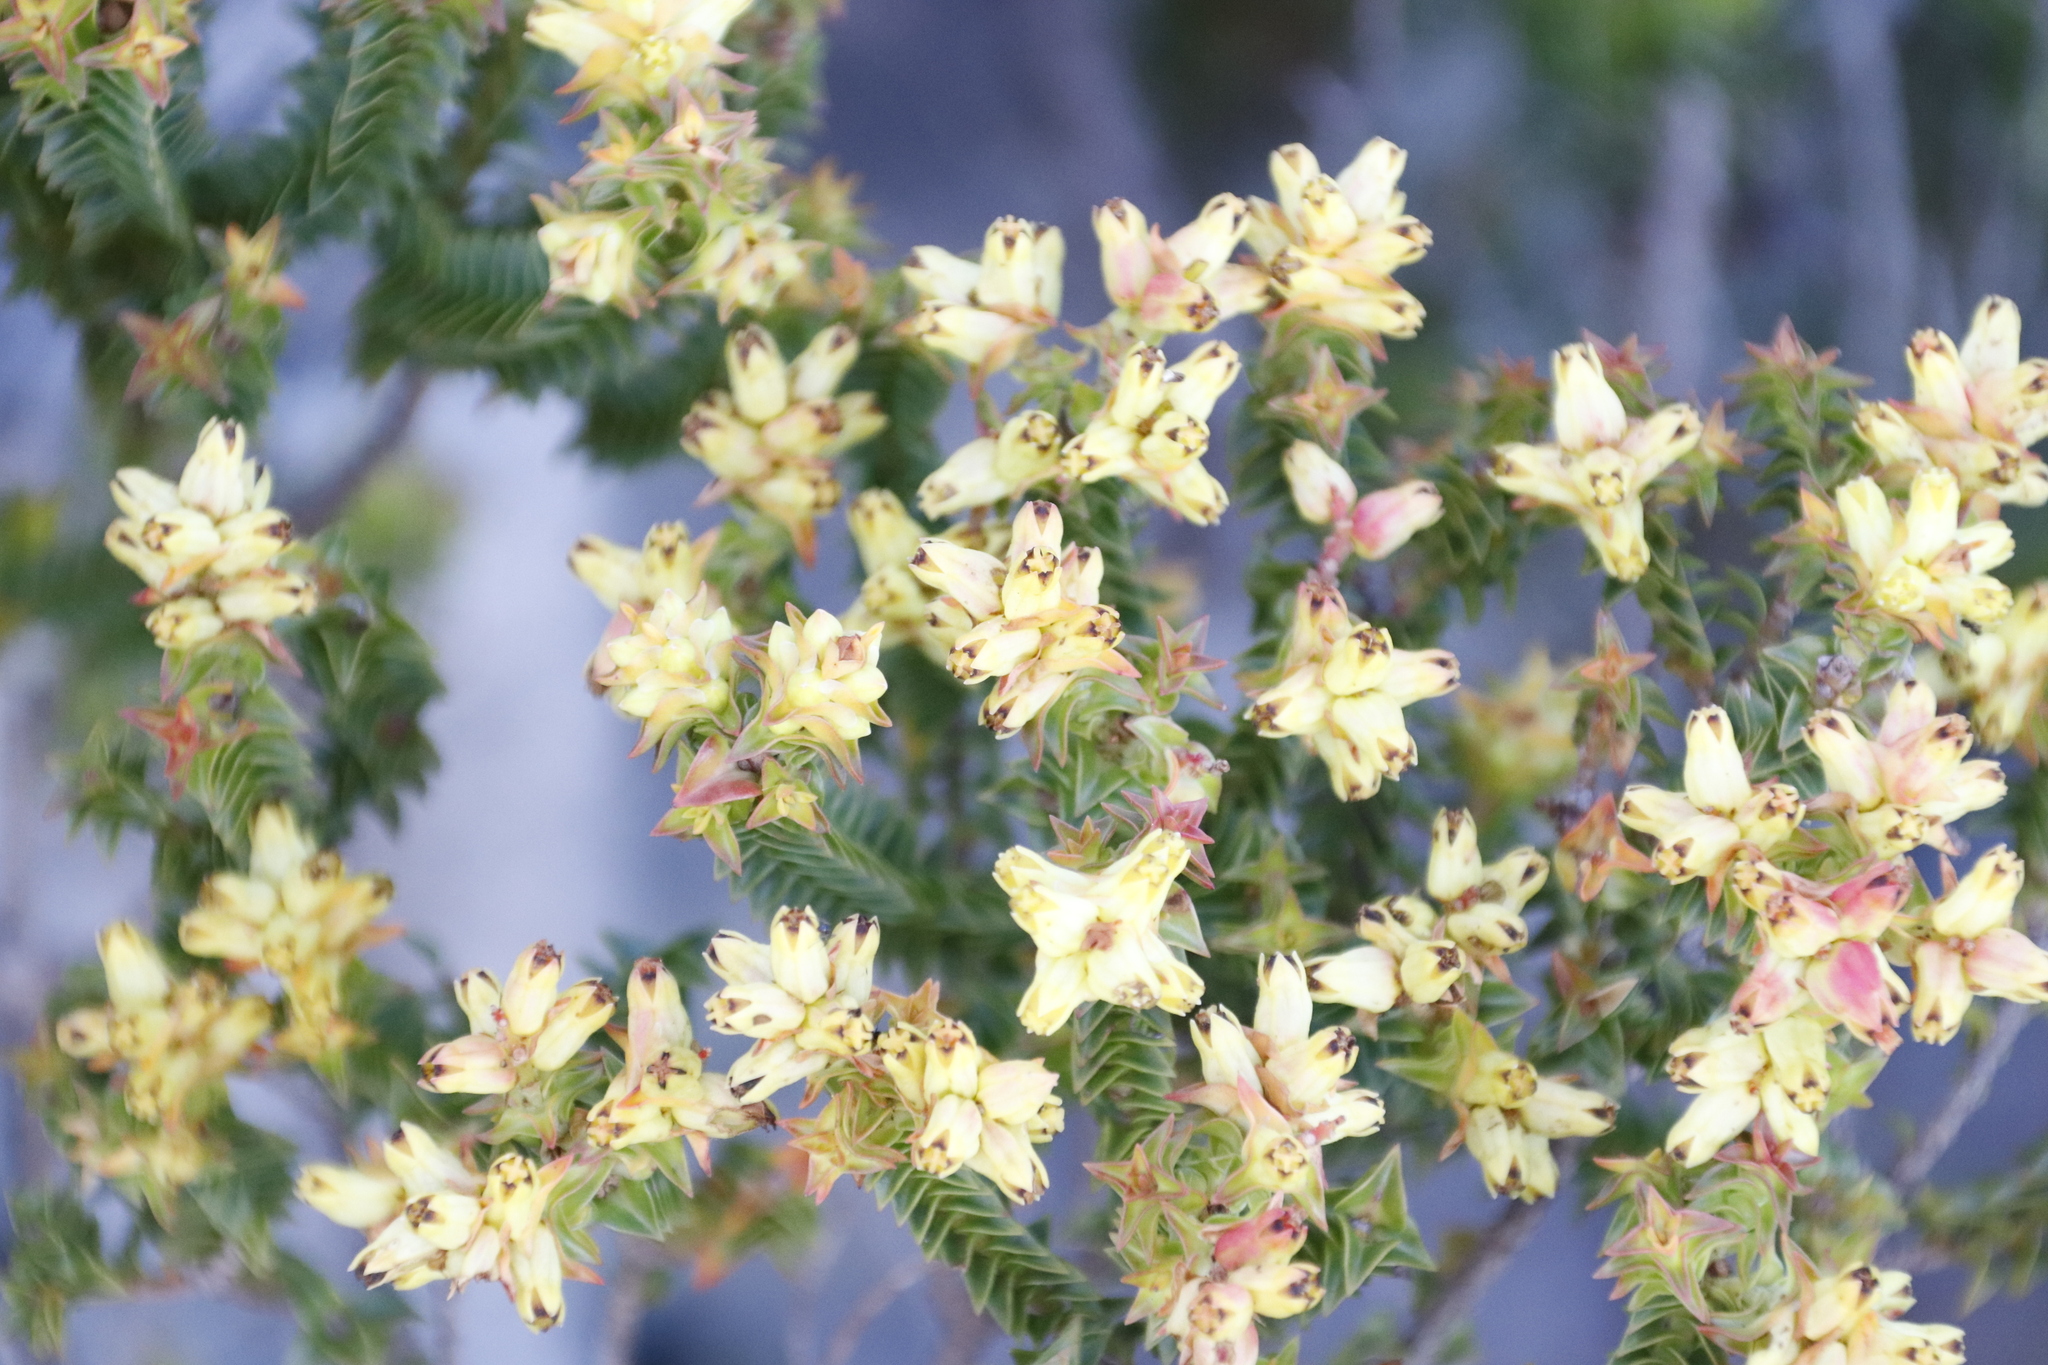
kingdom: Plantae
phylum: Tracheophyta
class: Magnoliopsida
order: Myrtales
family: Penaeaceae
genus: Penaea
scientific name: Penaea mucronata
